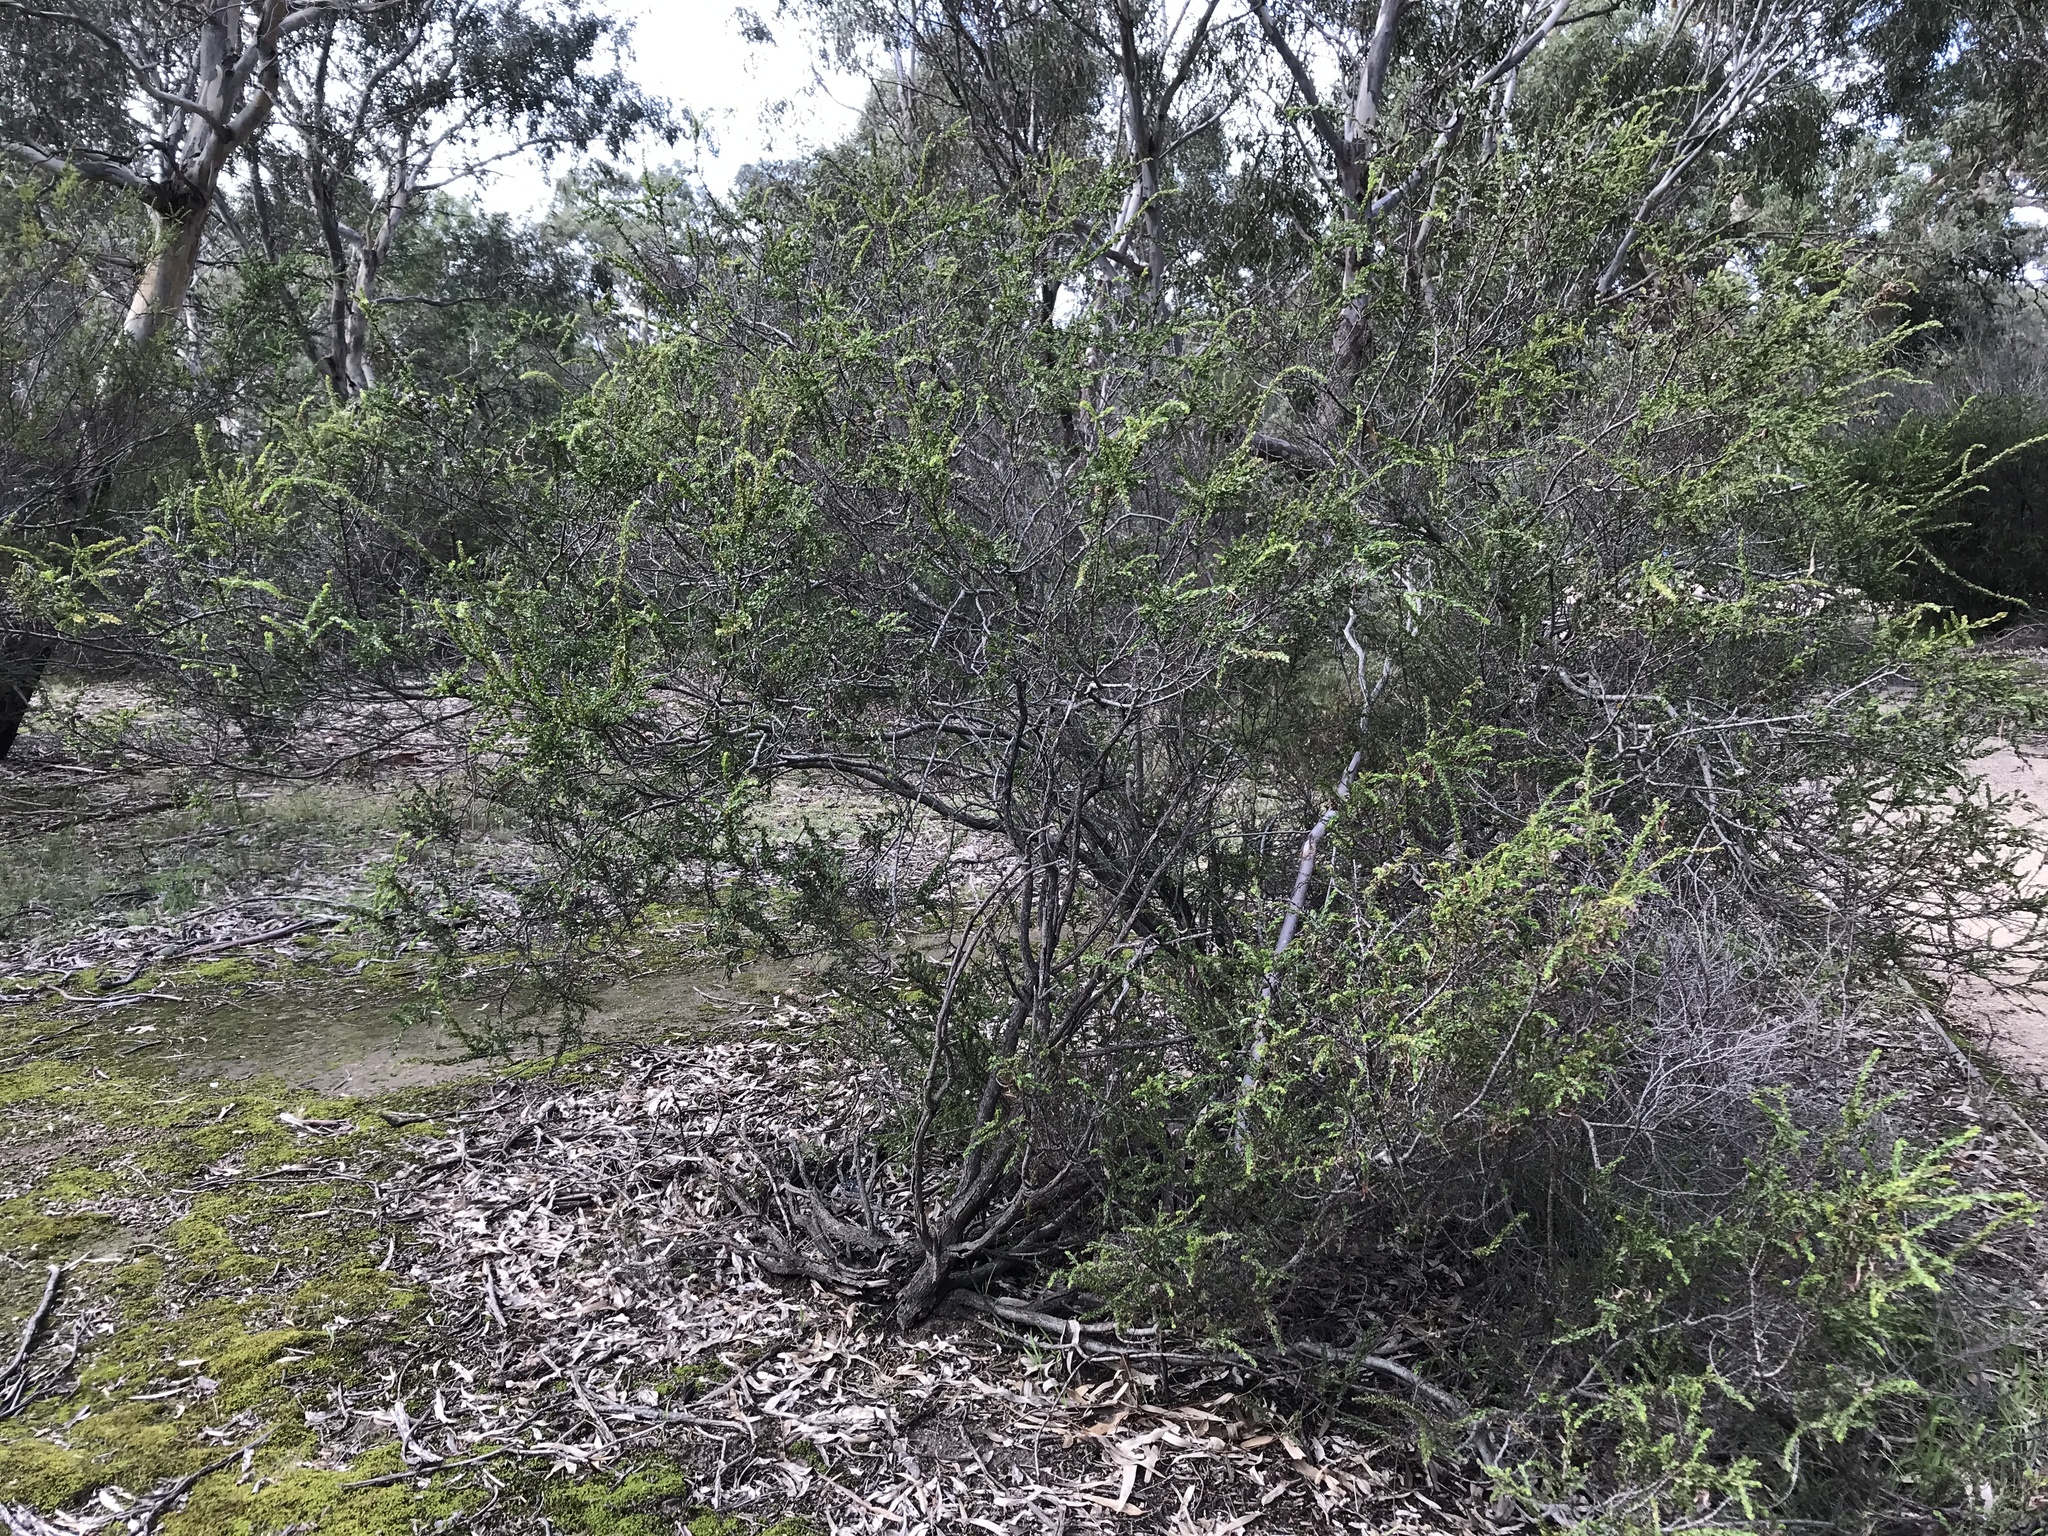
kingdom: Plantae
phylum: Tracheophyta
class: Magnoliopsida
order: Fabales
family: Fabaceae
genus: Acacia
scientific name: Acacia paradoxa
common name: Paradox acacia
